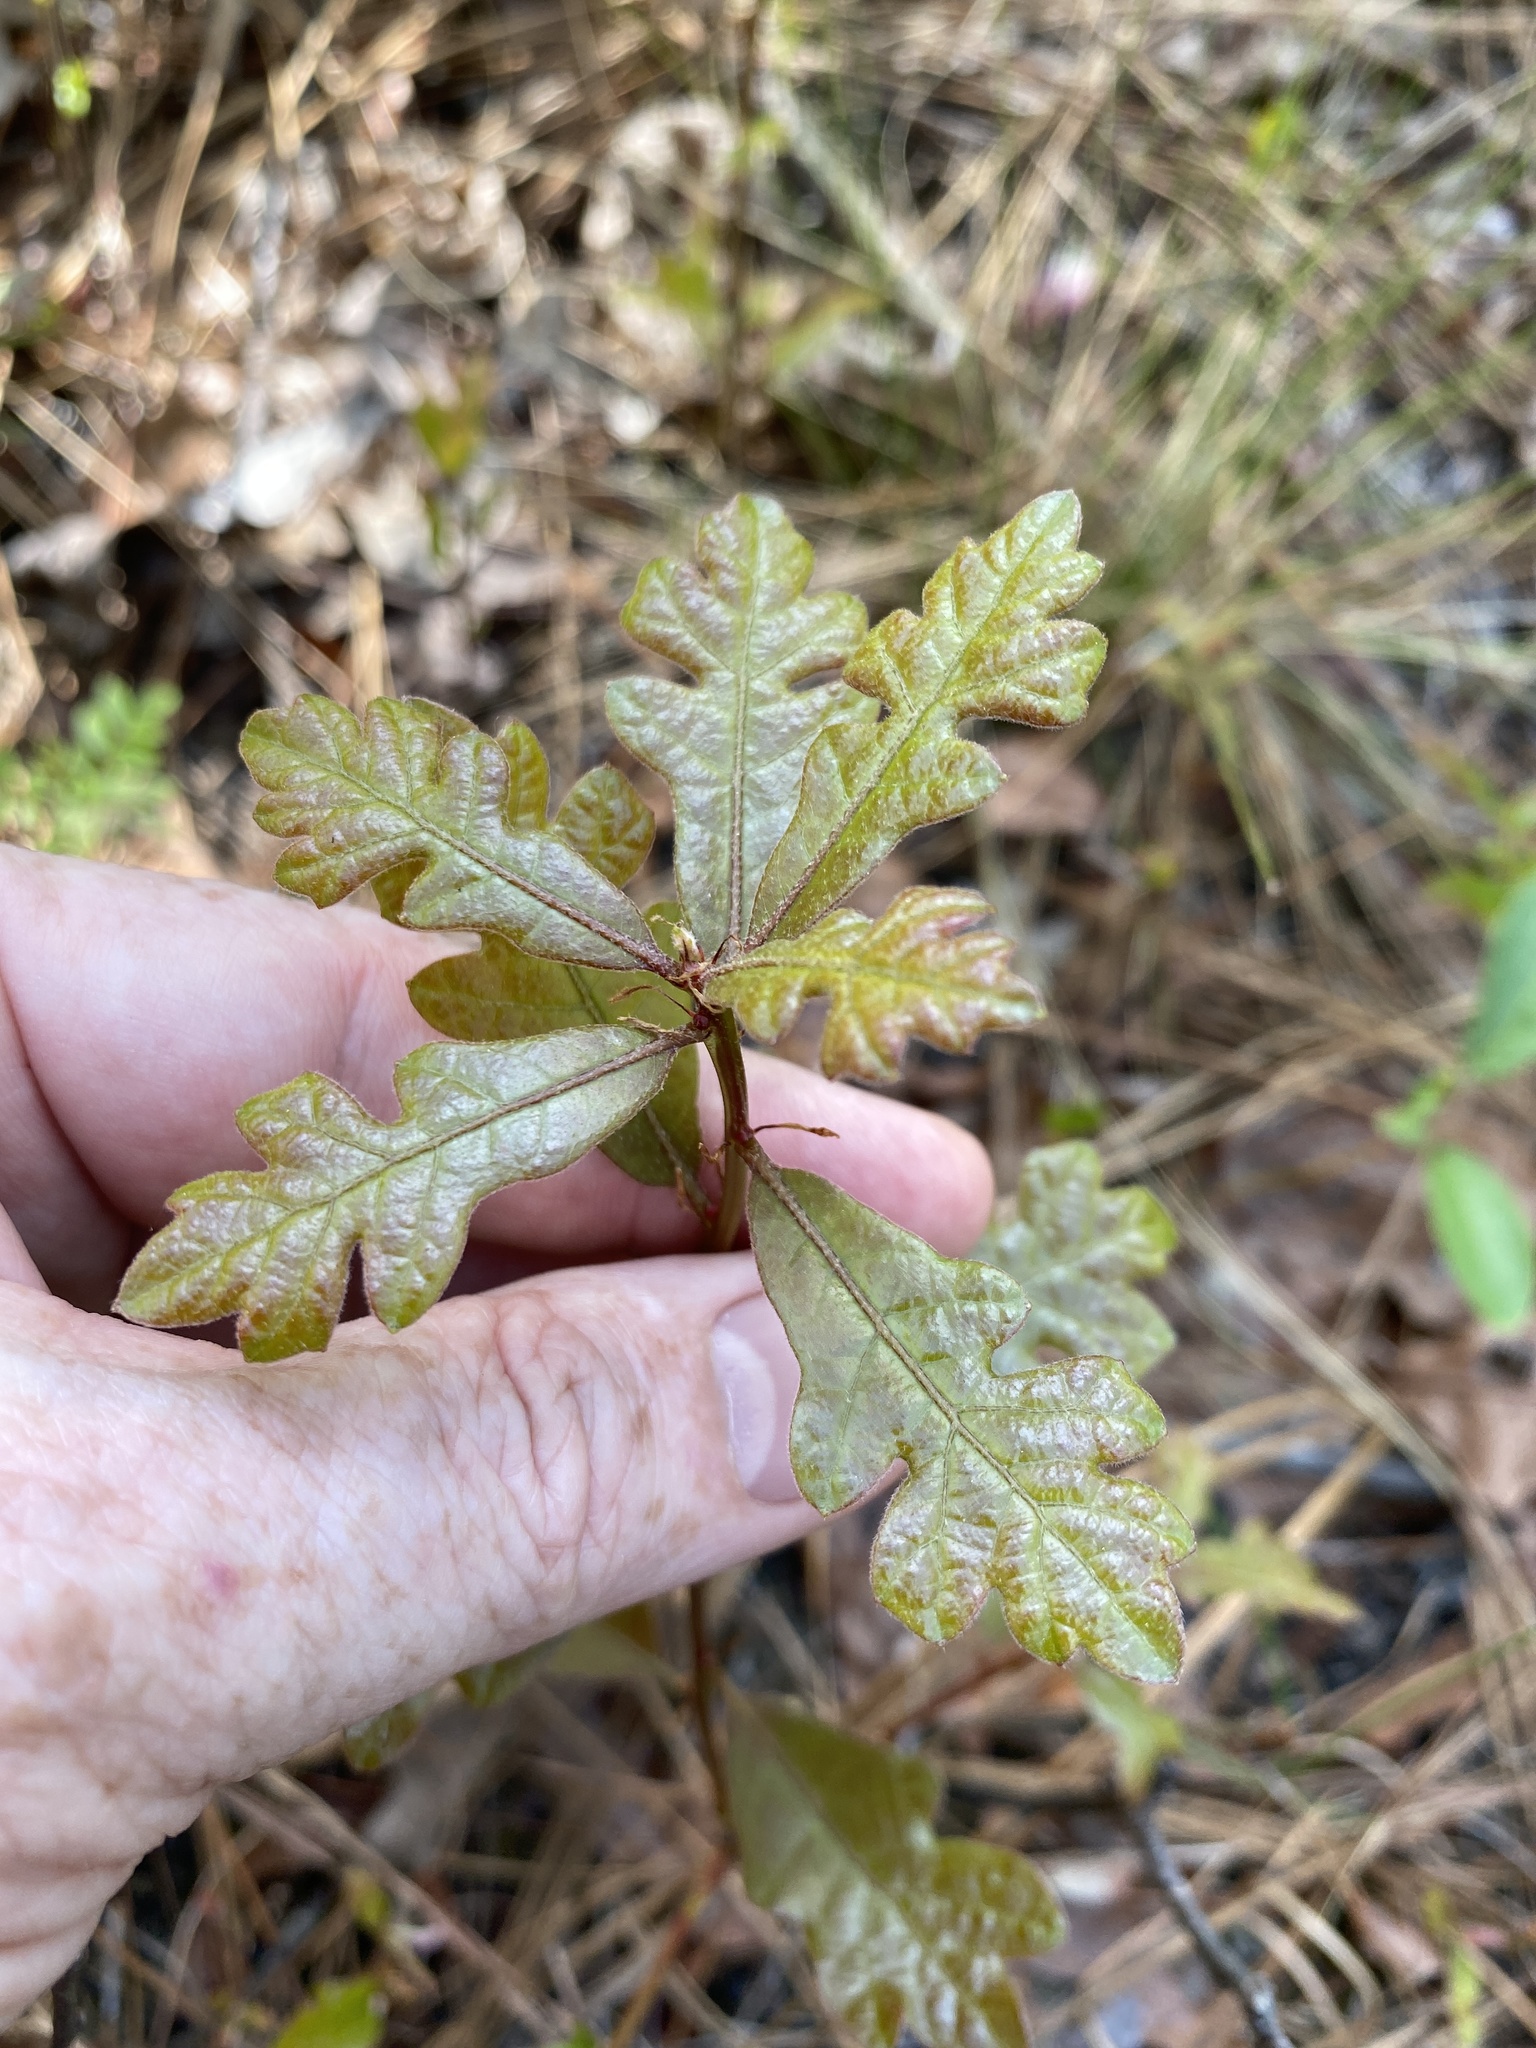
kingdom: Plantae
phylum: Tracheophyta
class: Magnoliopsida
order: Fagales
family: Fagaceae
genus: Quercus
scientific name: Quercus margaretiae
